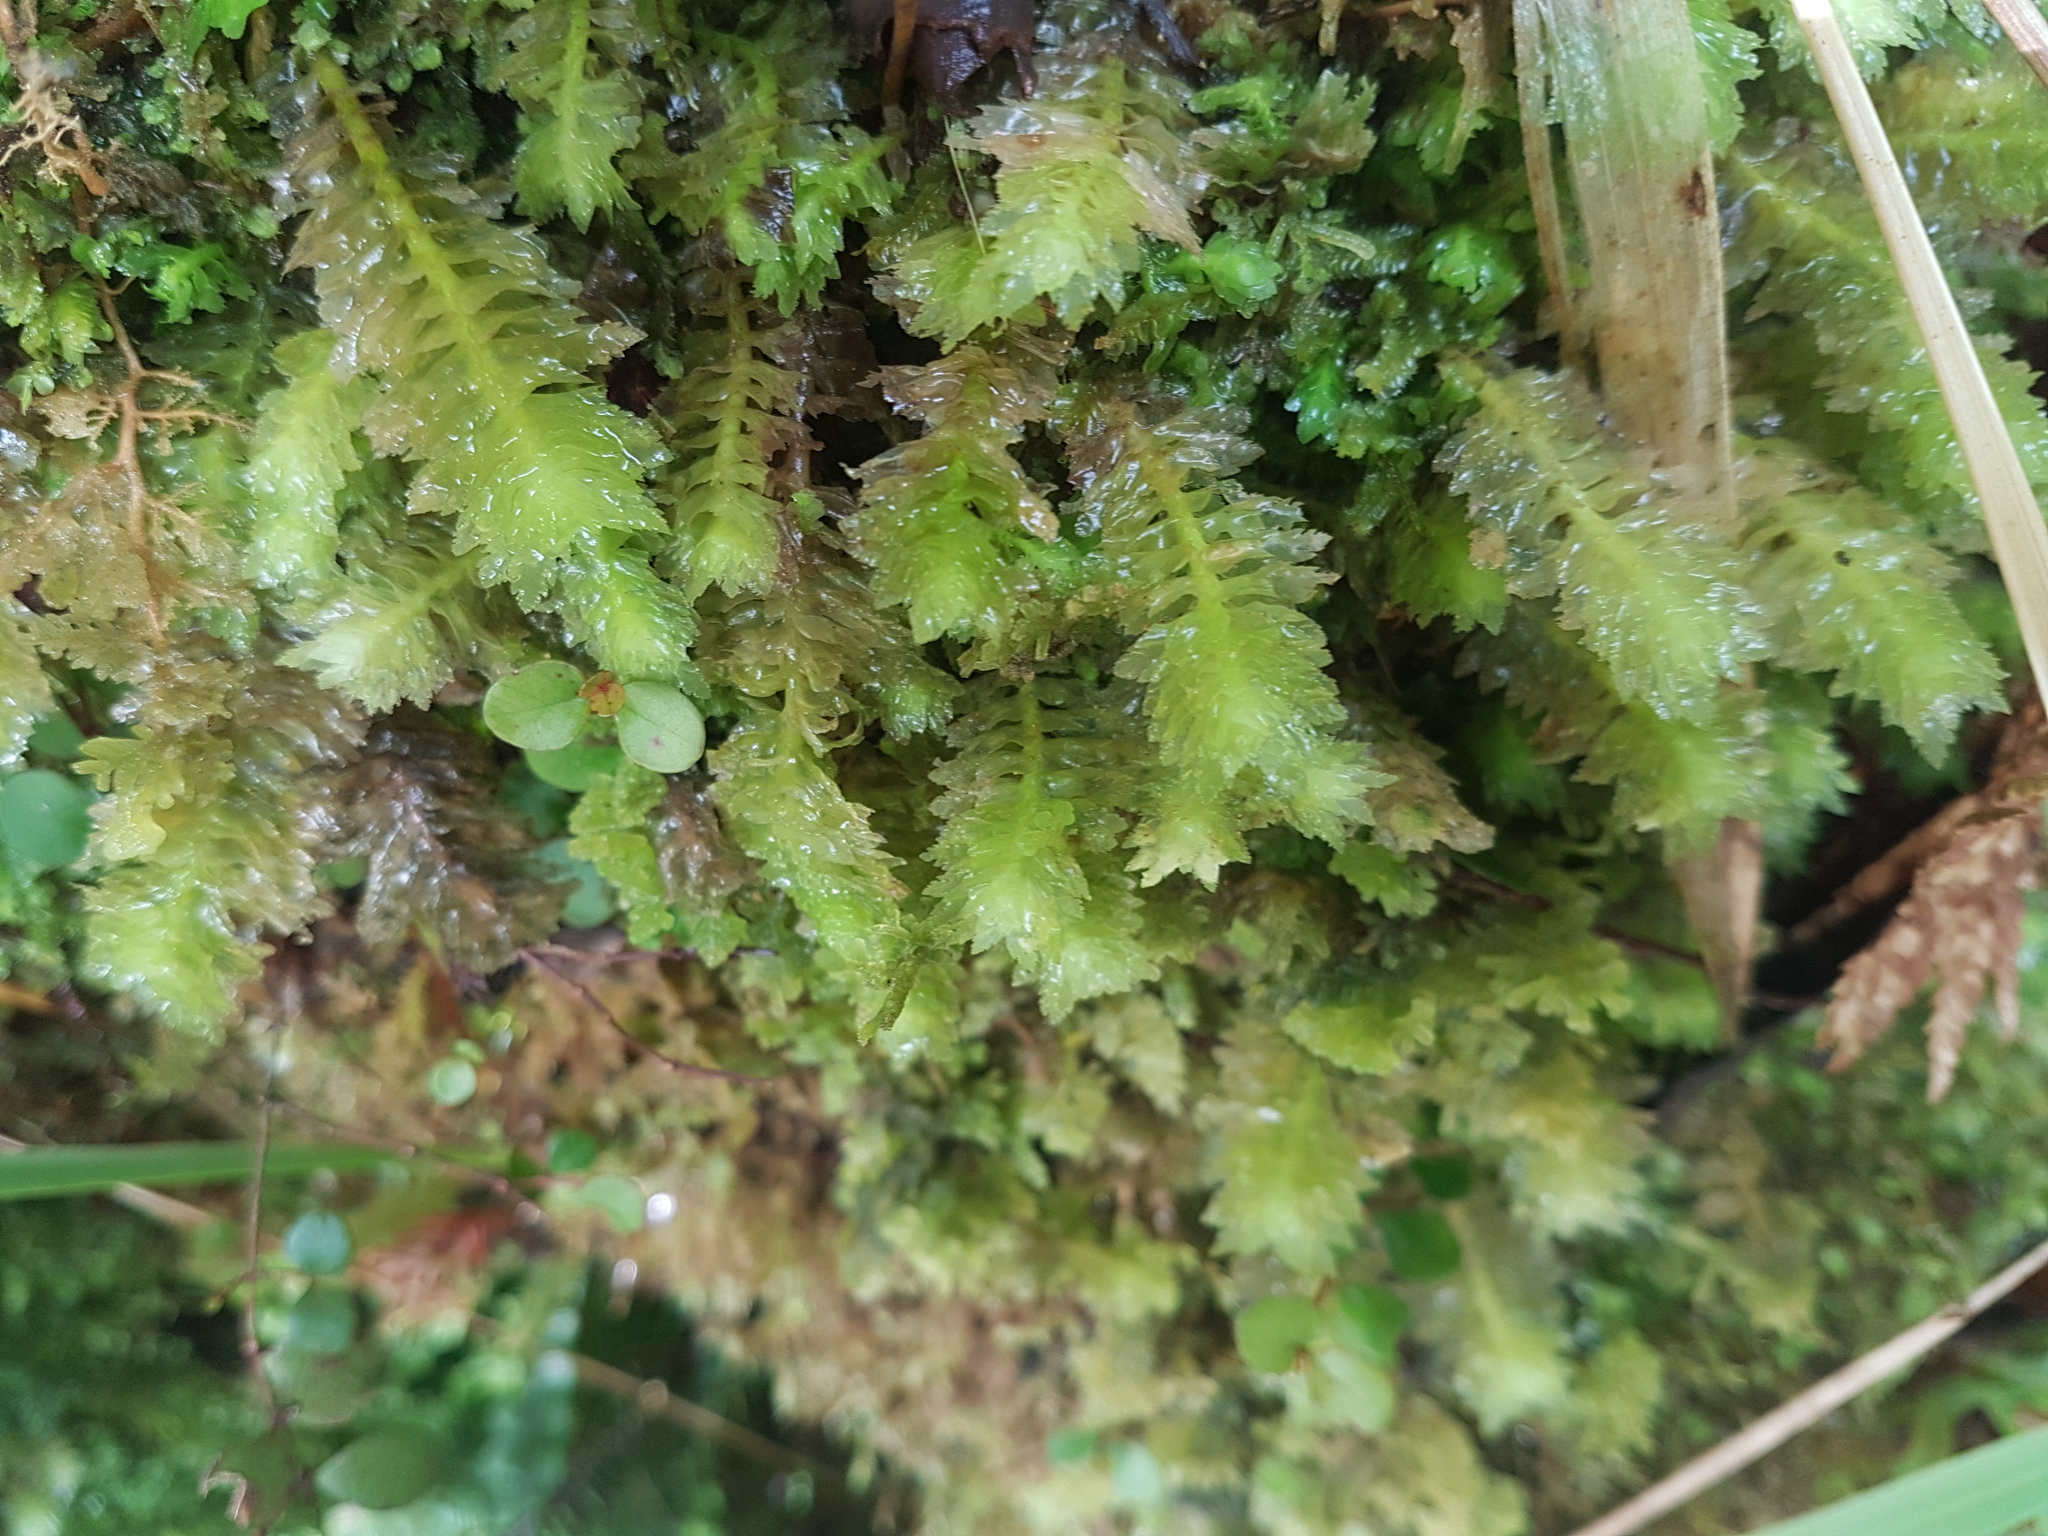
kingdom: Plantae
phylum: Marchantiophyta
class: Jungermanniopsida
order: Jungermanniales
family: Schistochilaceae
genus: Schistochila
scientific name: Schistochila appendiculata
